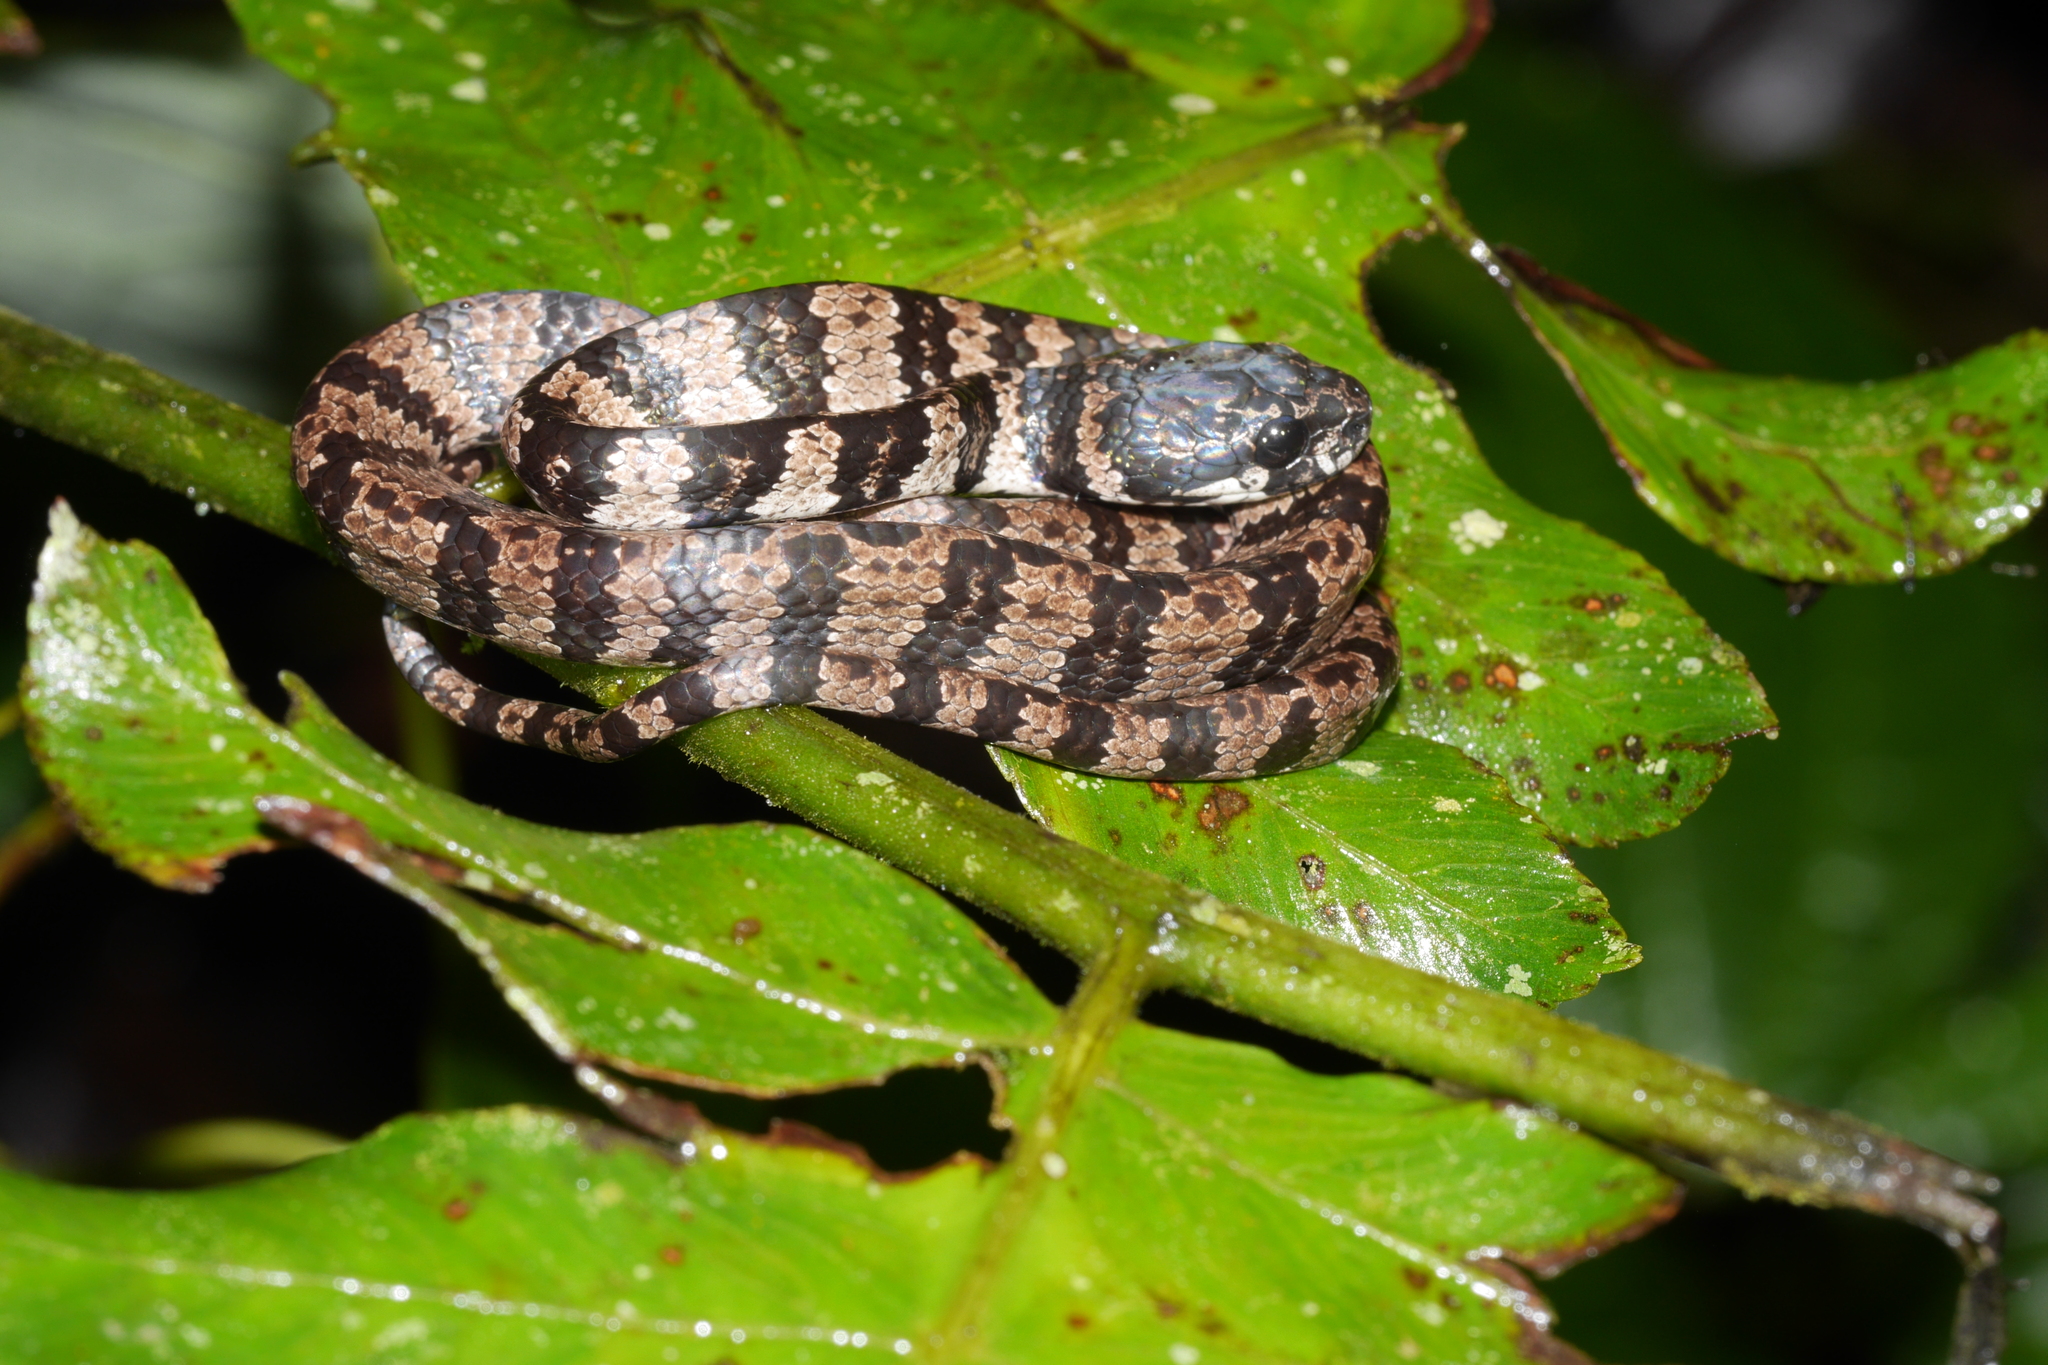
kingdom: Animalia
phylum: Chordata
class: Squamata
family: Colubridae
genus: Dipsas
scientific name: Dipsas elegans
